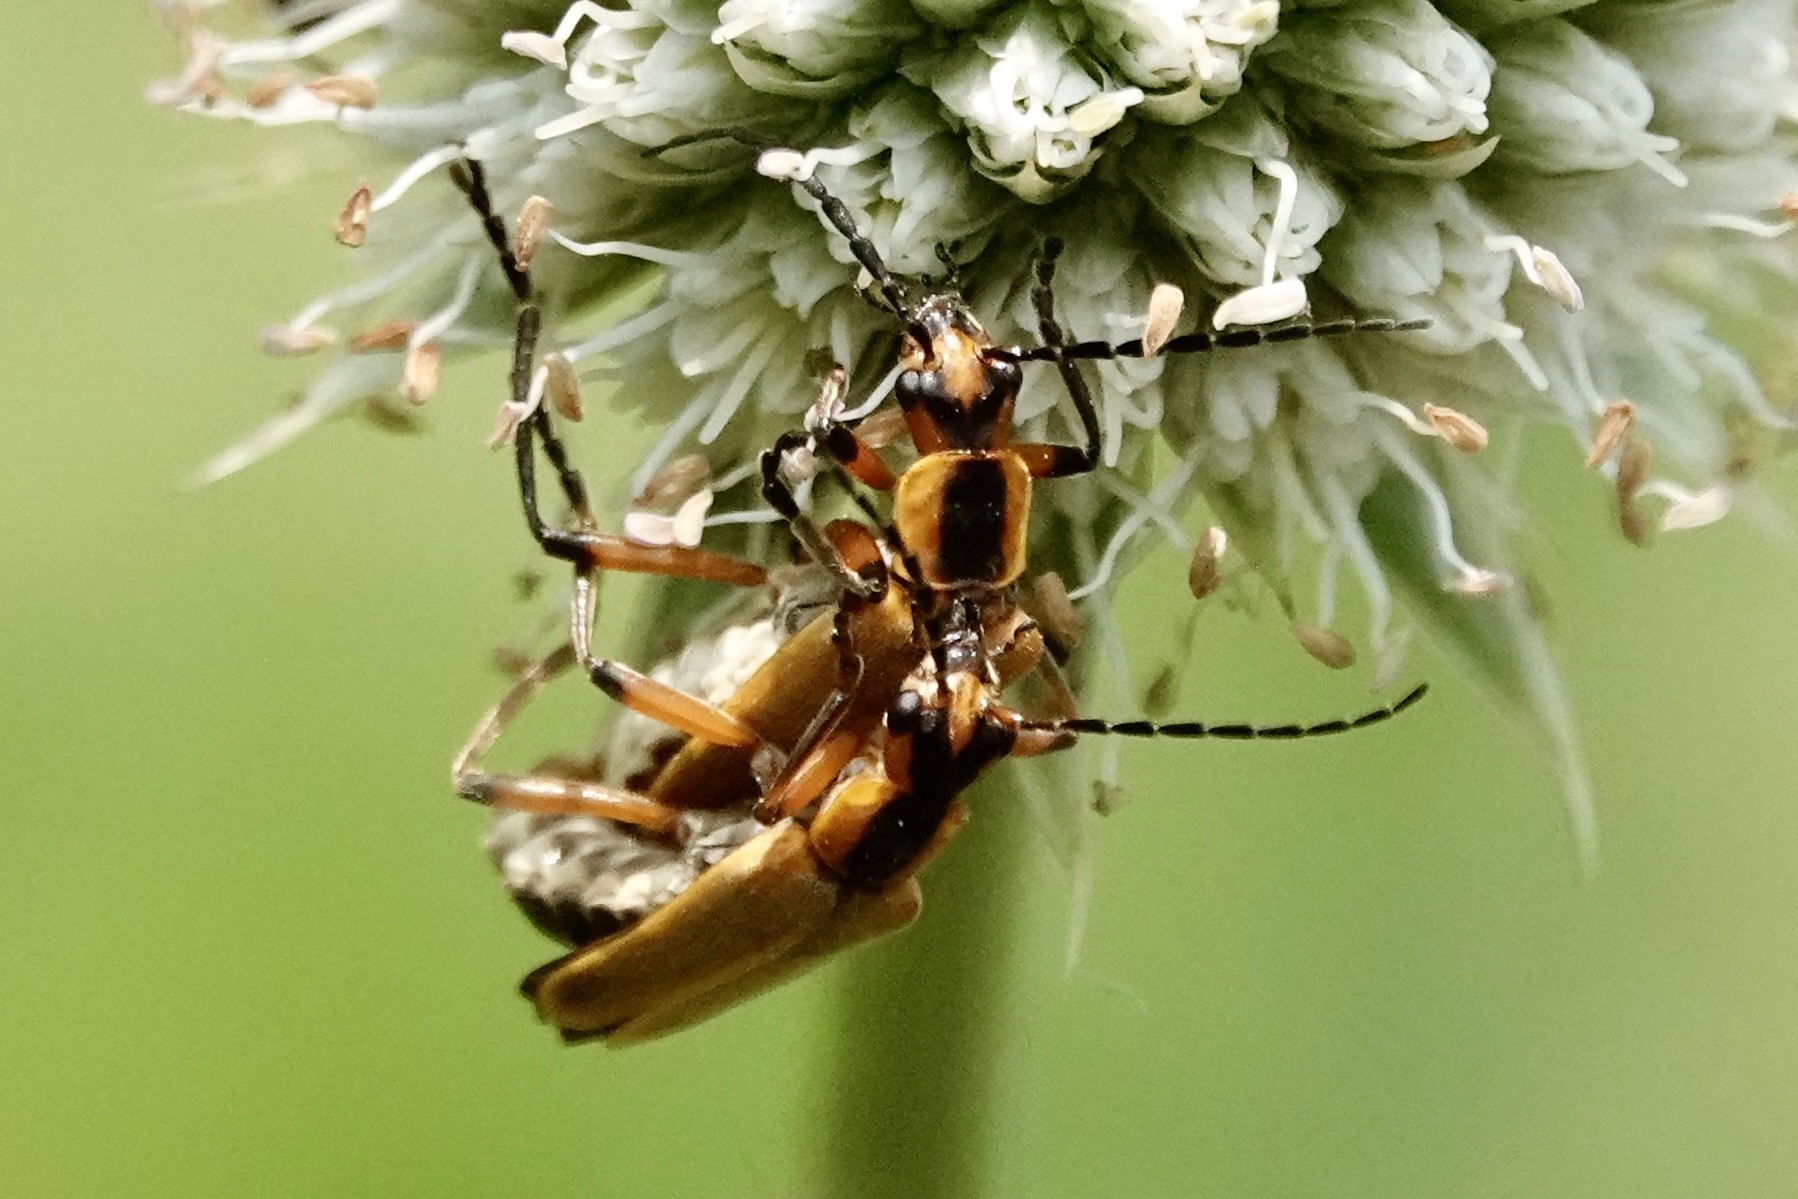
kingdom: Animalia
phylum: Arthropoda
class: Insecta
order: Coleoptera
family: Cantharidae
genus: Chauliognathus
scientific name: Chauliognathus marginatus
